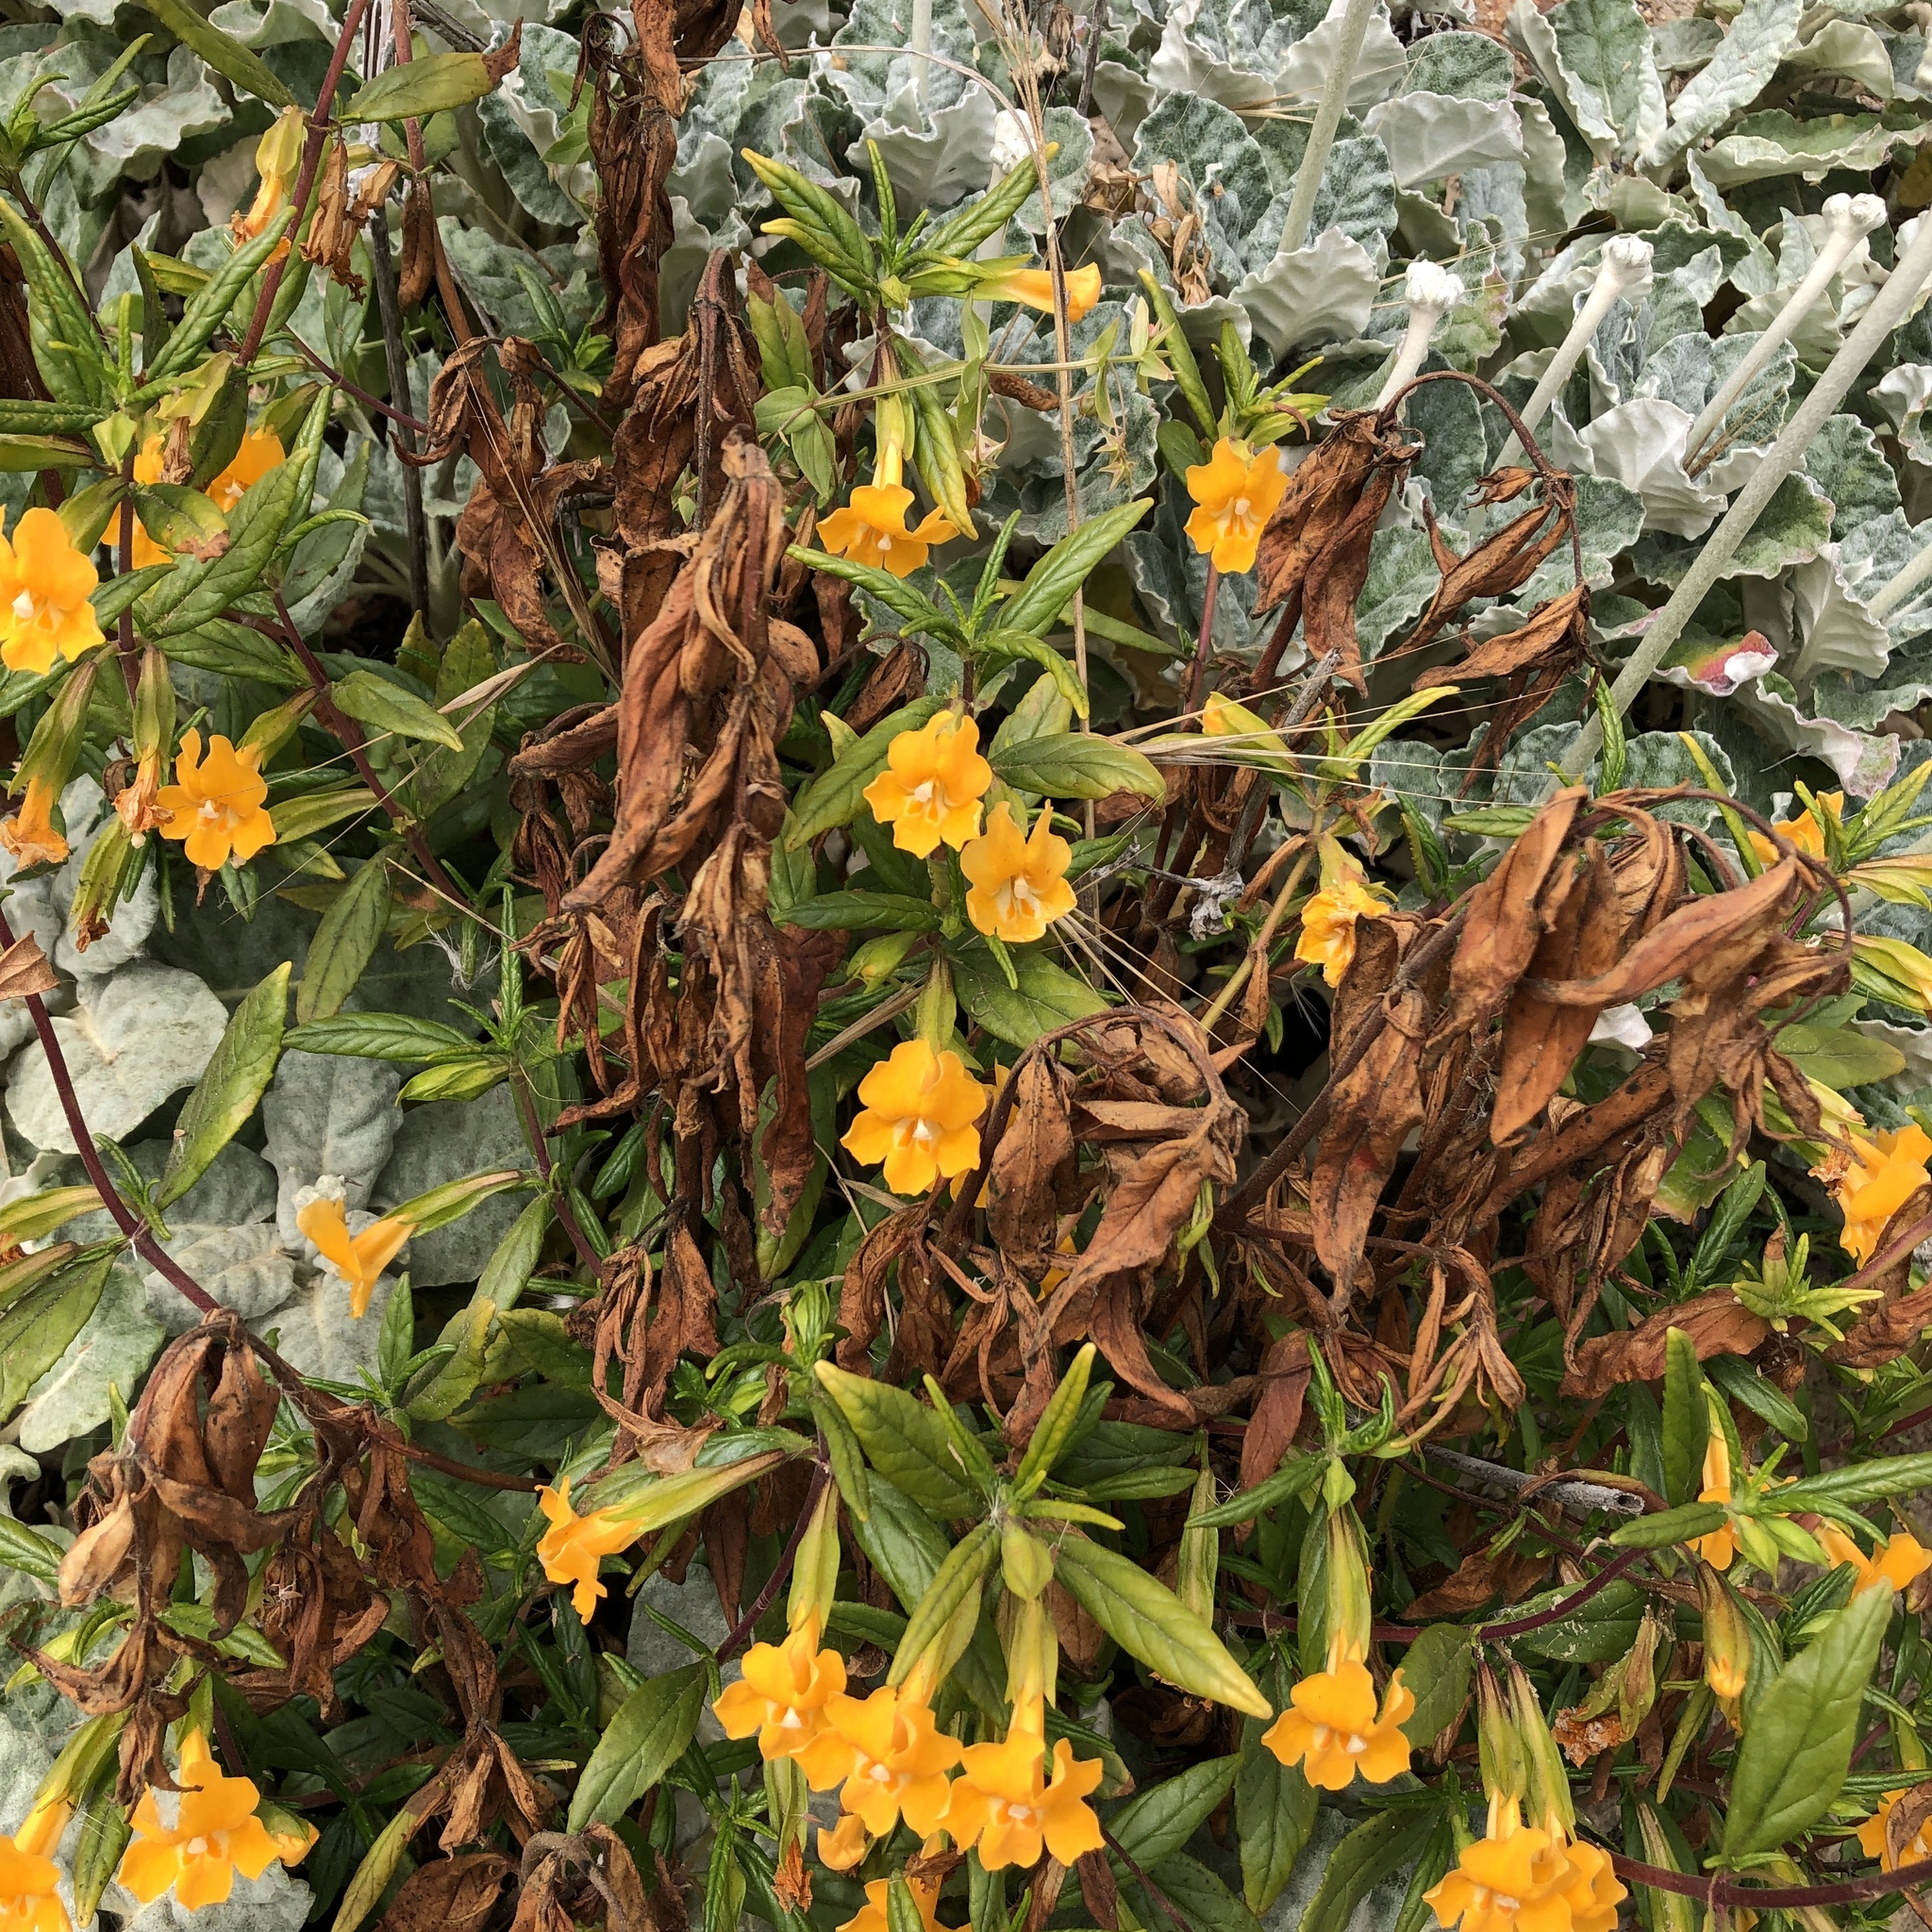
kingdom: Plantae
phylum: Tracheophyta
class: Magnoliopsida
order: Lamiales
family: Phrymaceae
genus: Diplacus
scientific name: Diplacus aurantiacus
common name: Bush monkey-flower
